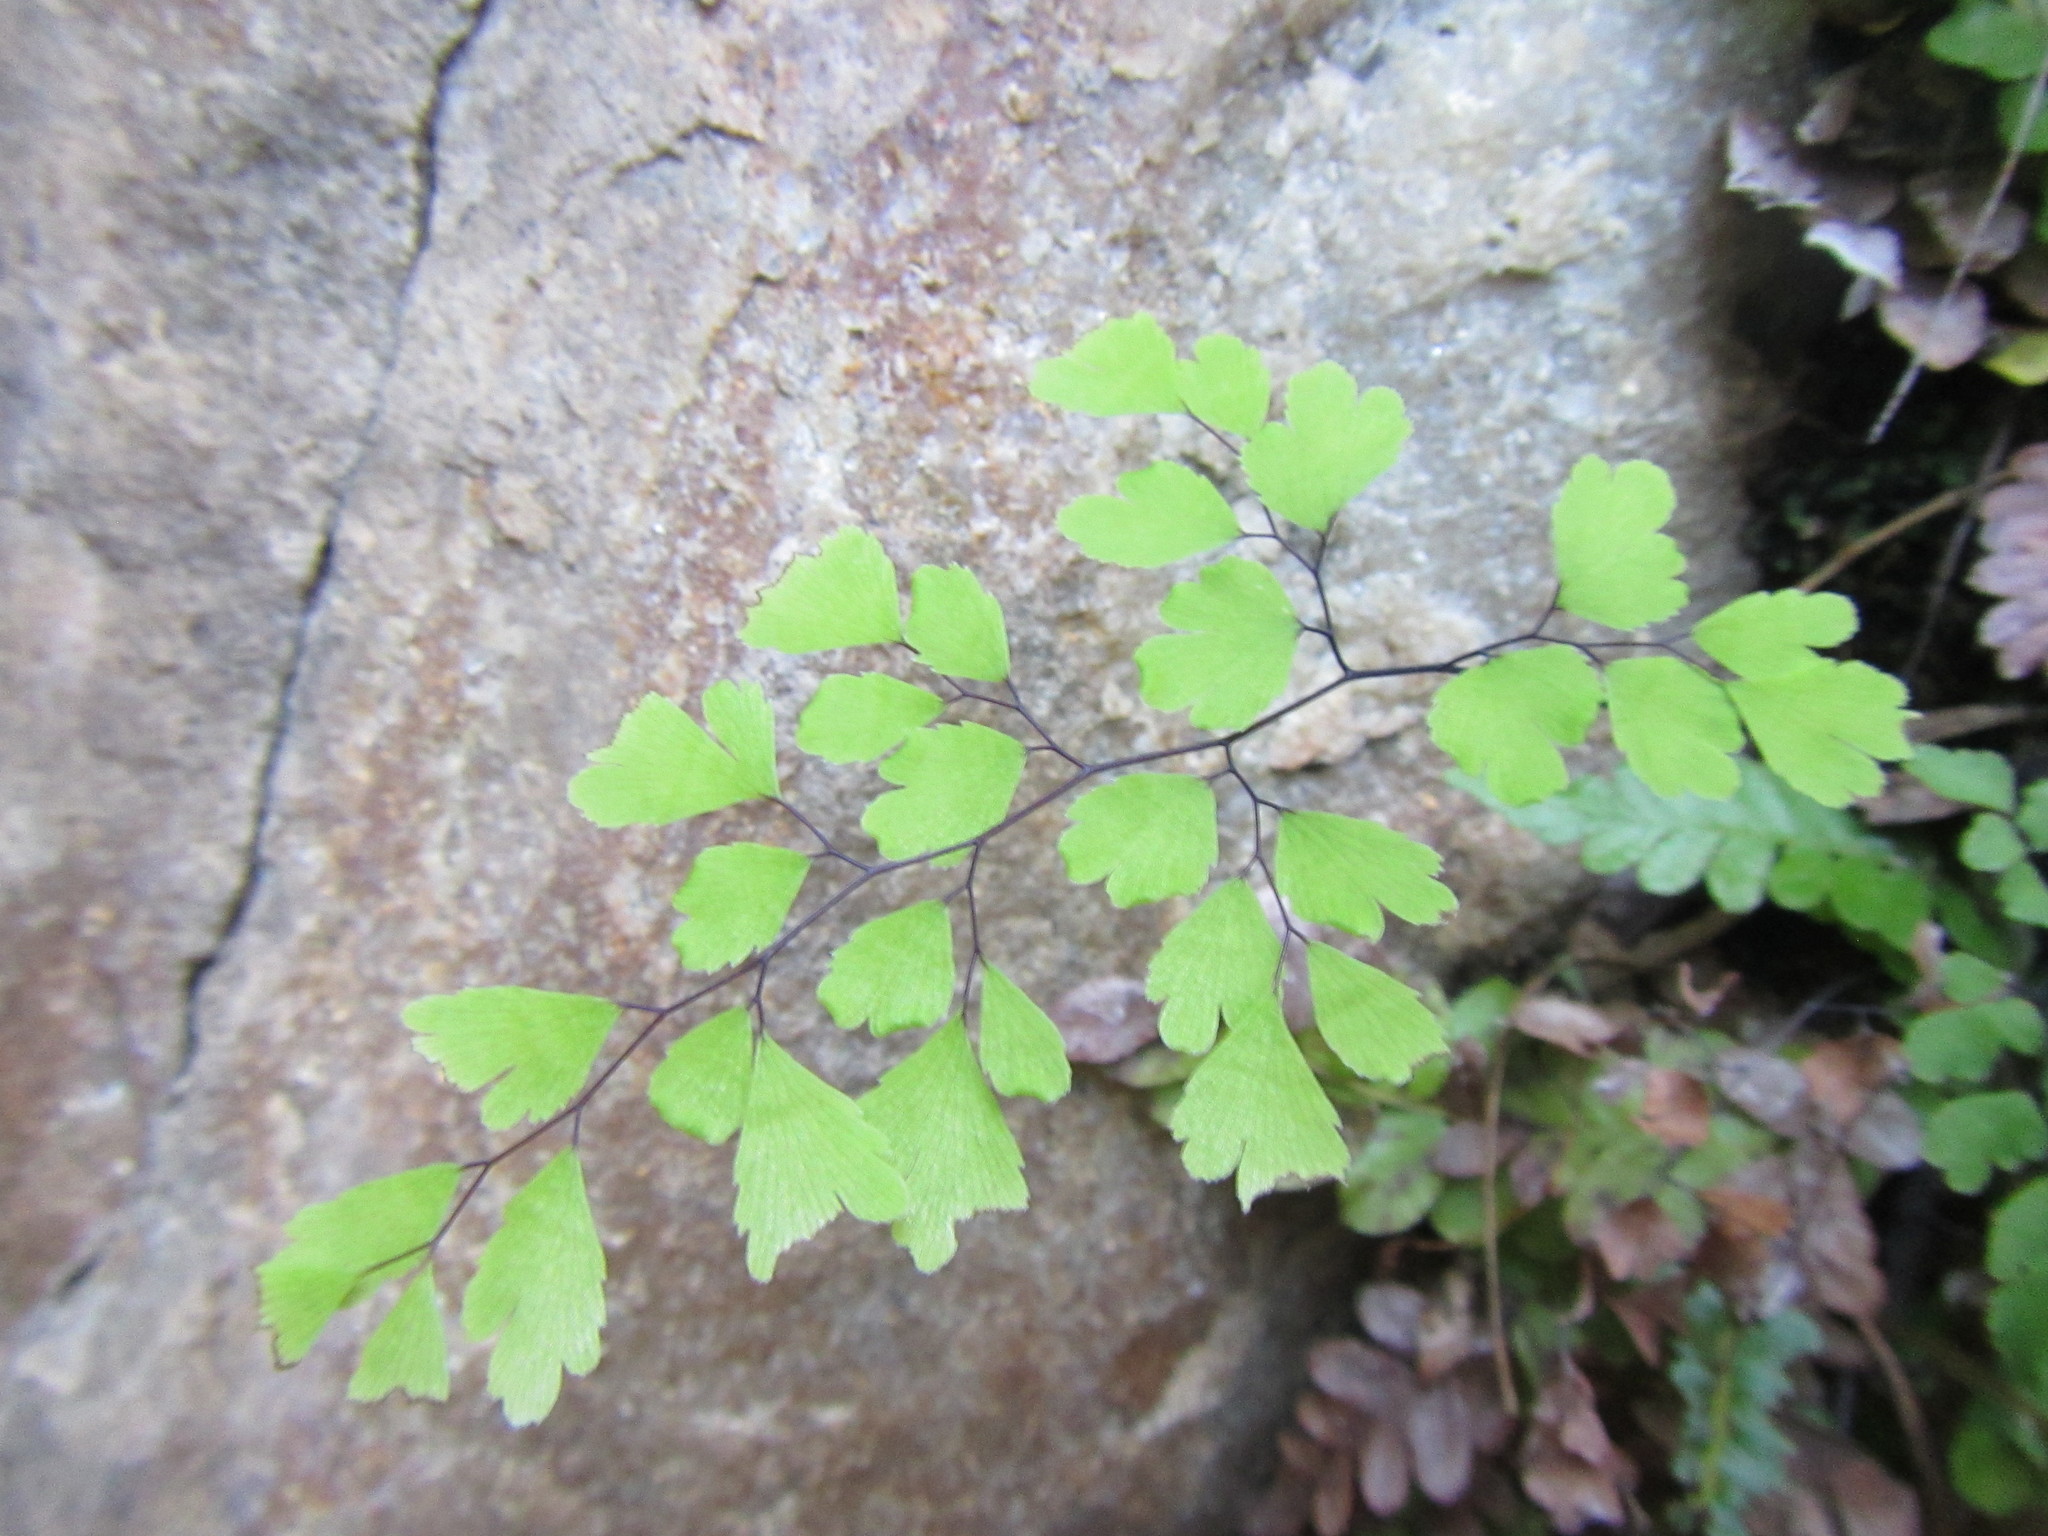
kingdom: Plantae
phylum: Tracheophyta
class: Polypodiopsida
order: Polypodiales
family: Pteridaceae
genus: Adiantum
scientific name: Adiantum capillus-veneris
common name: Maidenhair fern
